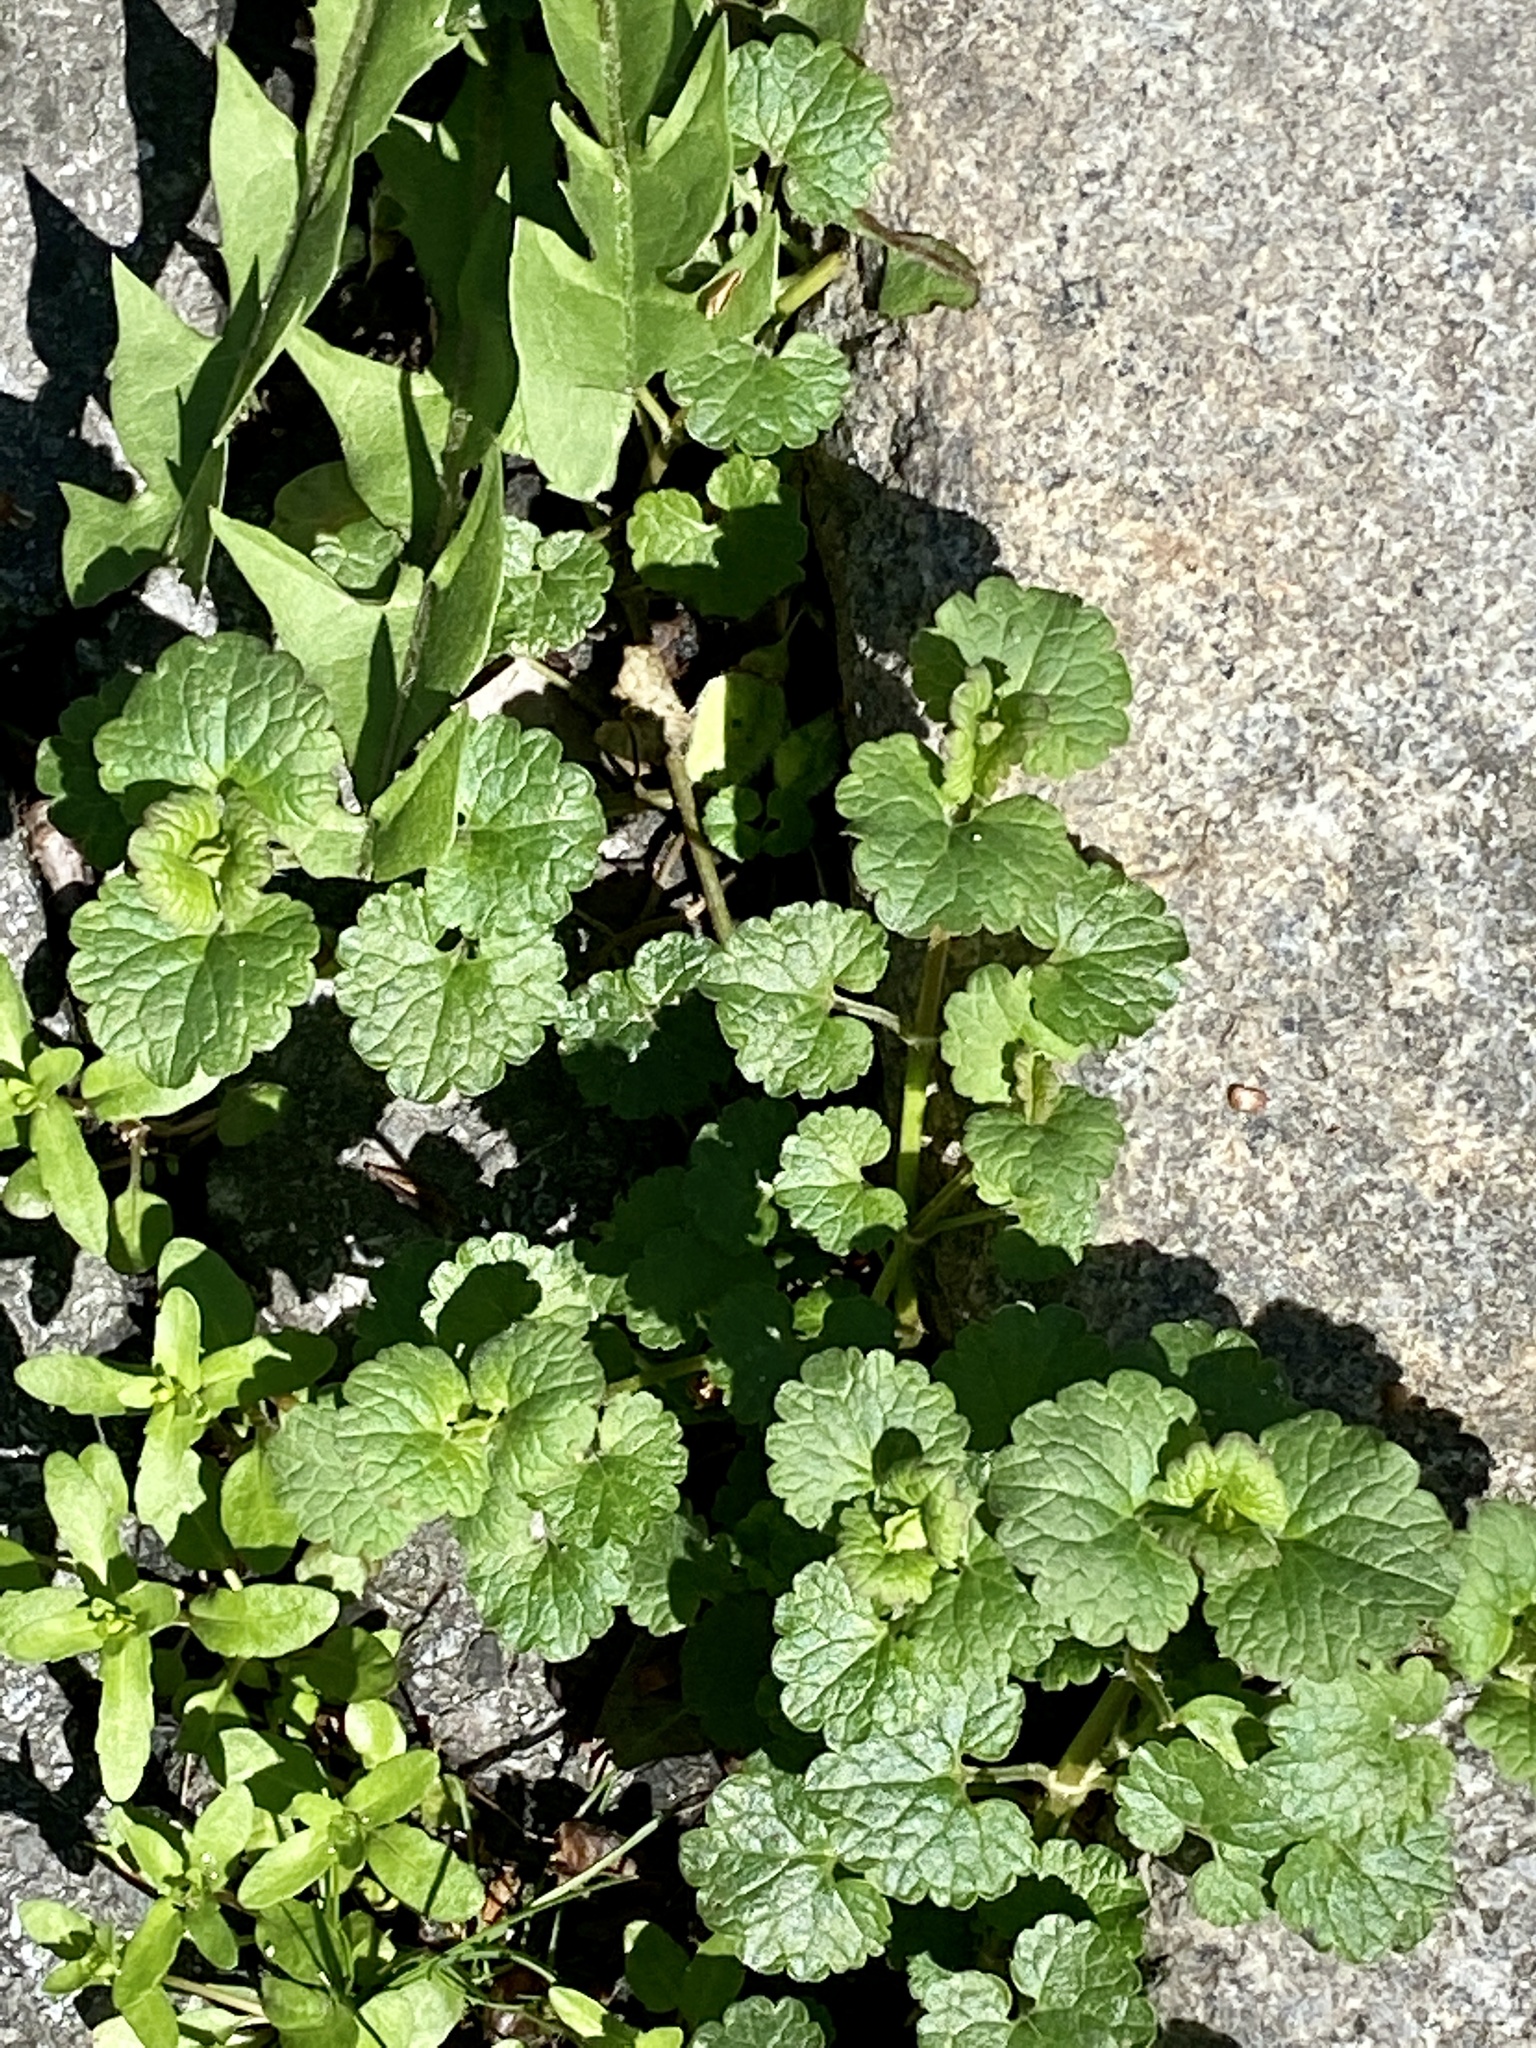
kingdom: Plantae
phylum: Tracheophyta
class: Magnoliopsida
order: Lamiales
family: Lamiaceae
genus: Glechoma
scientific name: Glechoma hederacea
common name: Ground ivy
